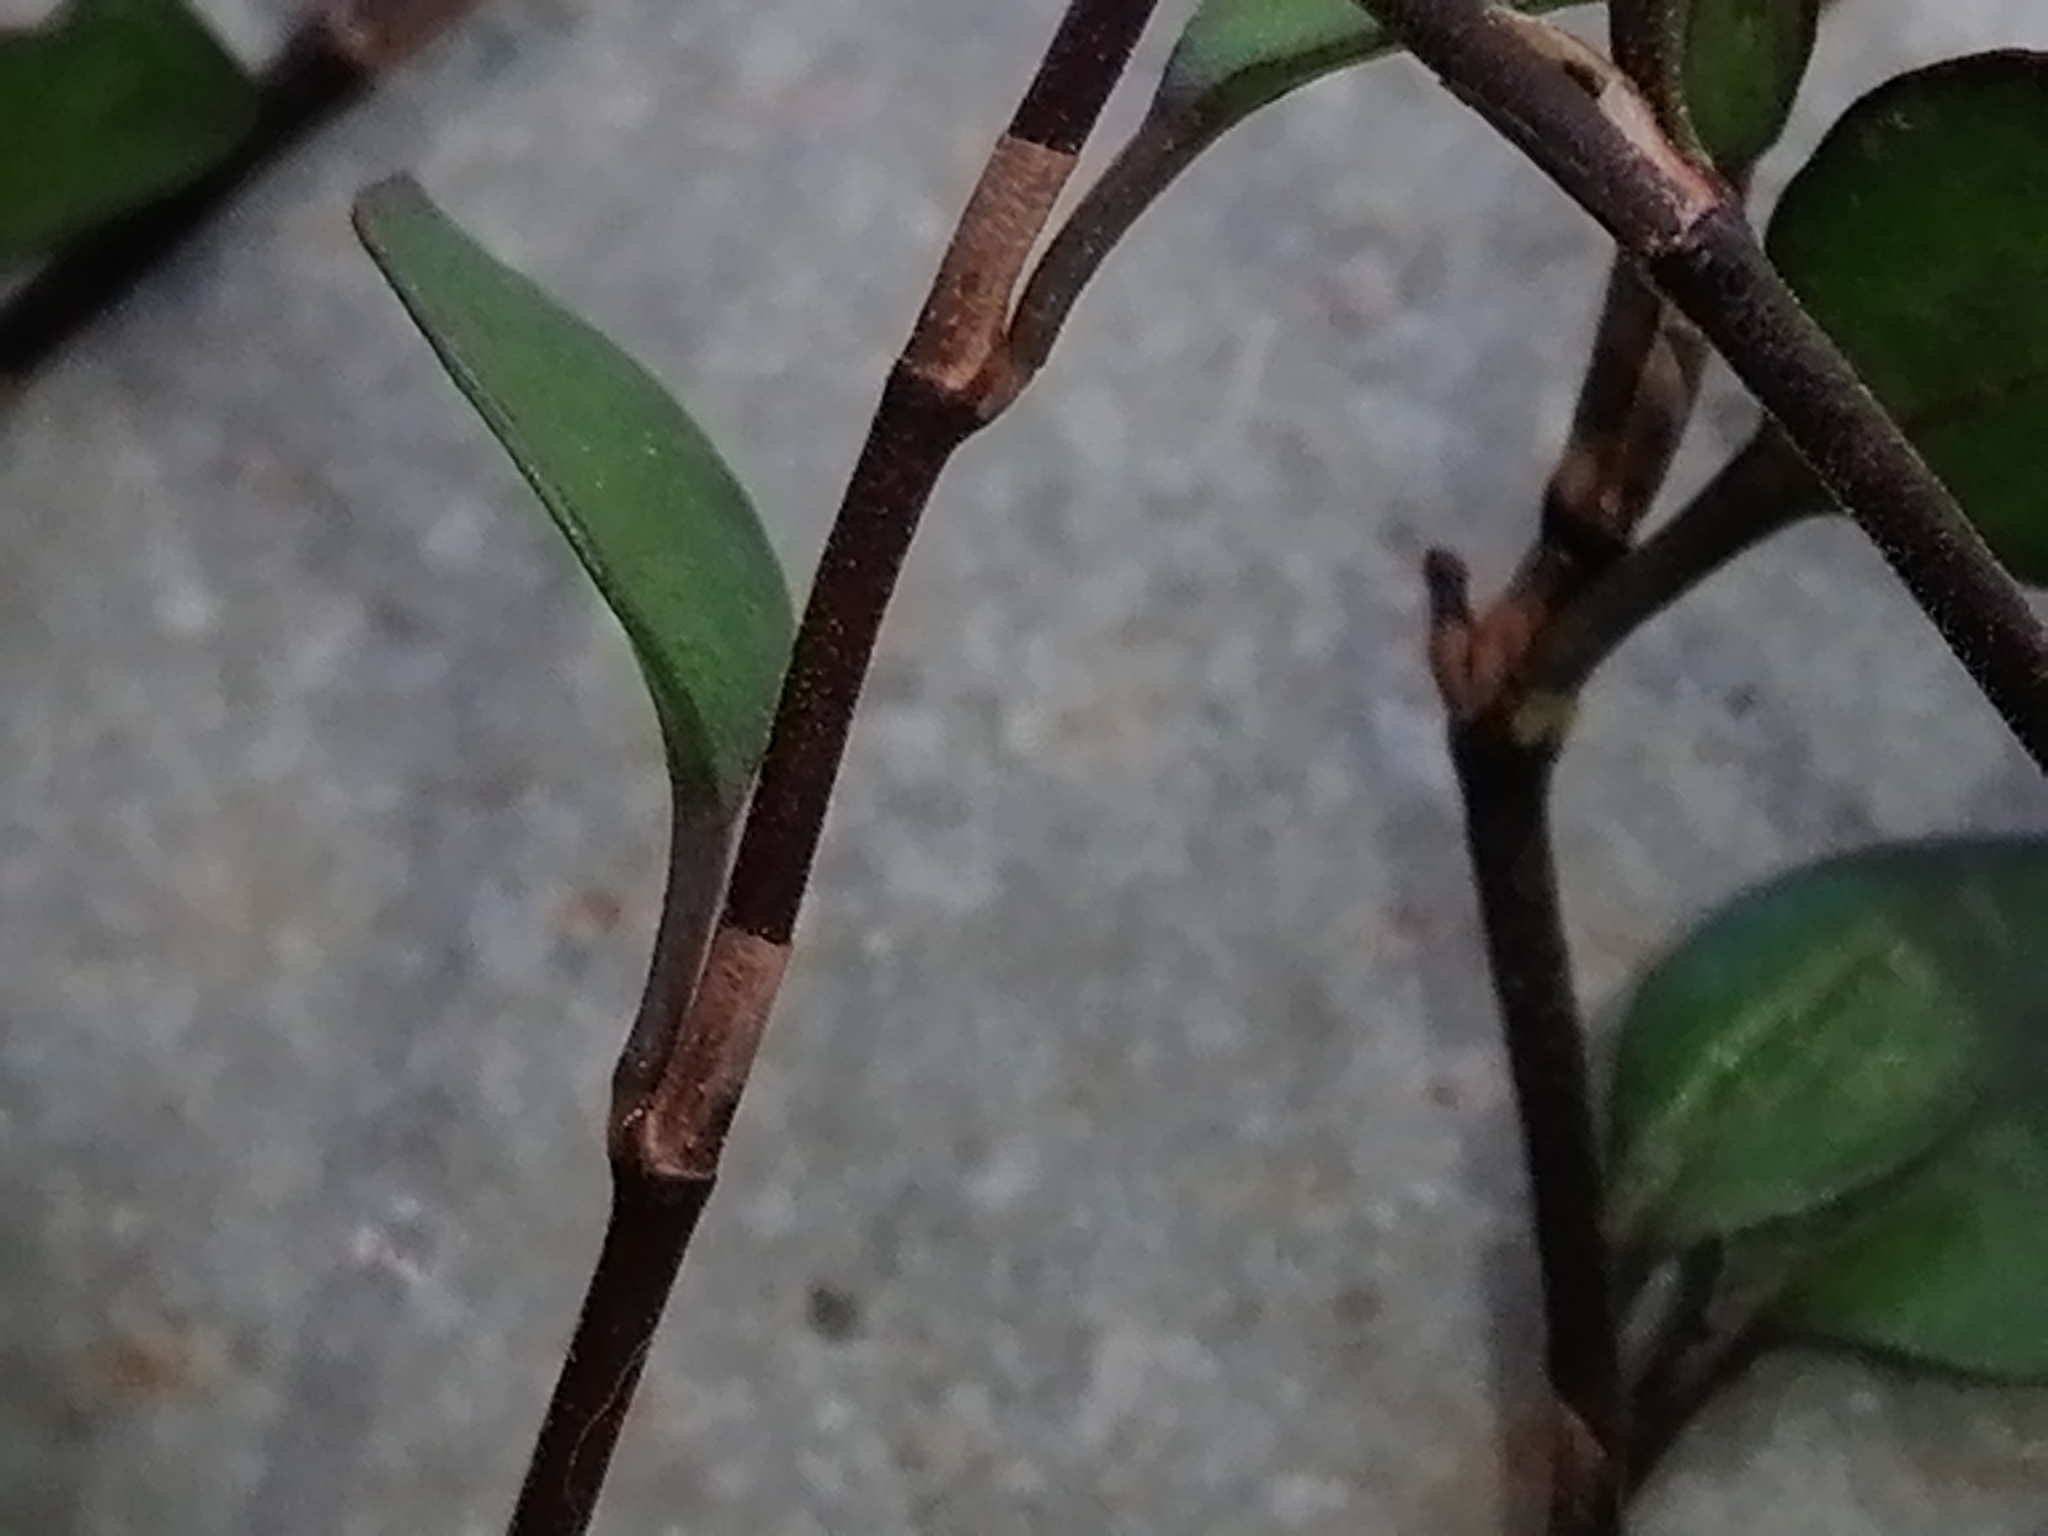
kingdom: Plantae
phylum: Tracheophyta
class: Magnoliopsida
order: Caryophyllales
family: Polygonaceae
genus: Muehlenbeckia
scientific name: Muehlenbeckia axillaris
